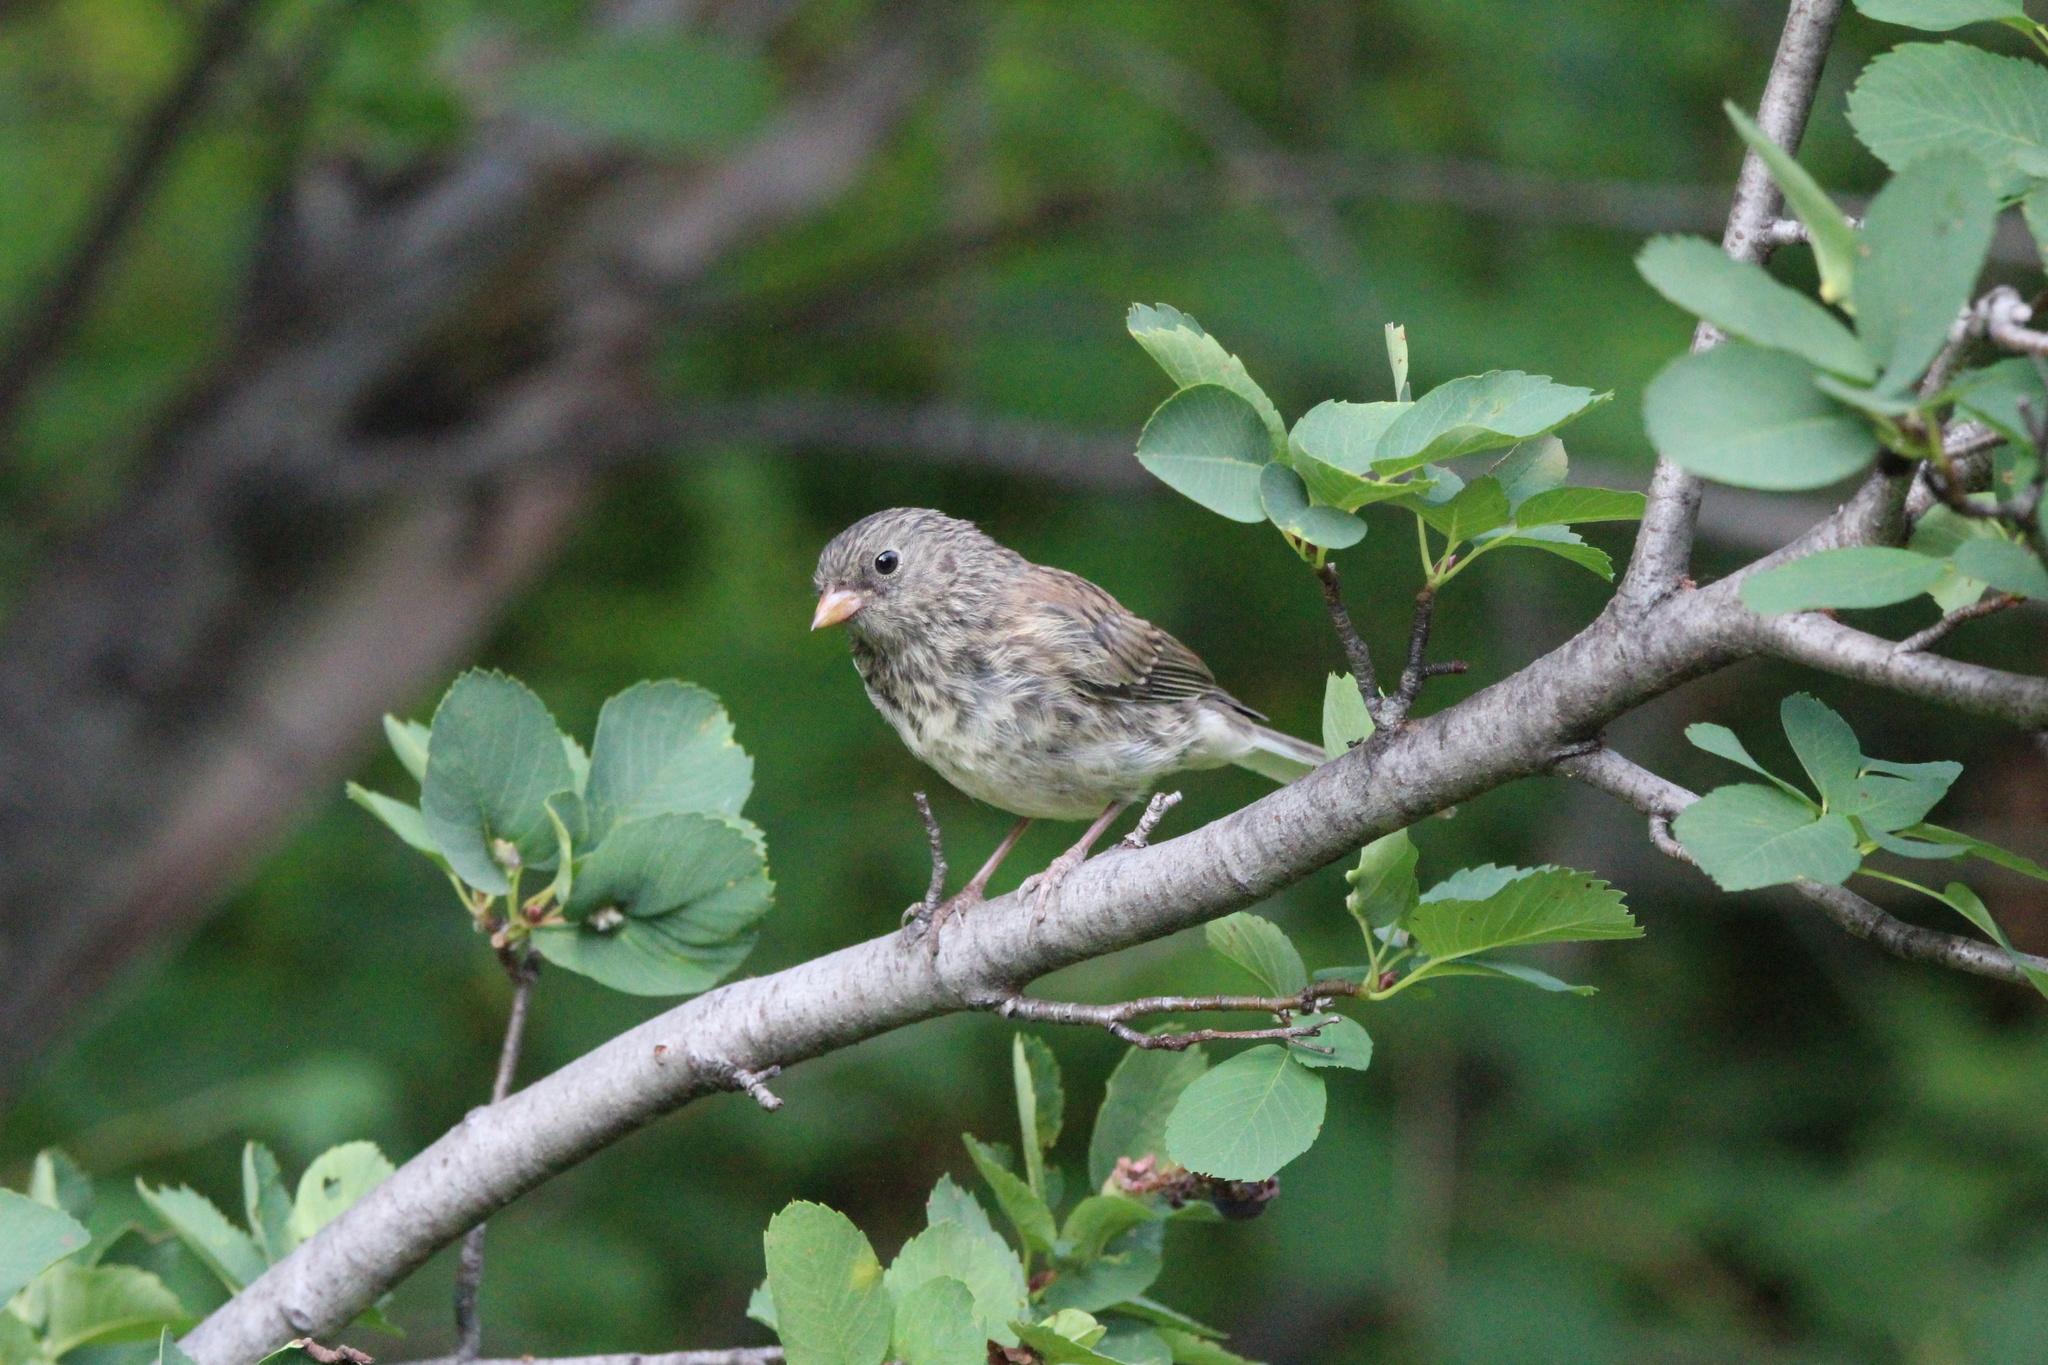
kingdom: Animalia
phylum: Chordata
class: Aves
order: Passeriformes
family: Passerellidae
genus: Junco
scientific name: Junco hyemalis
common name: Dark-eyed junco
